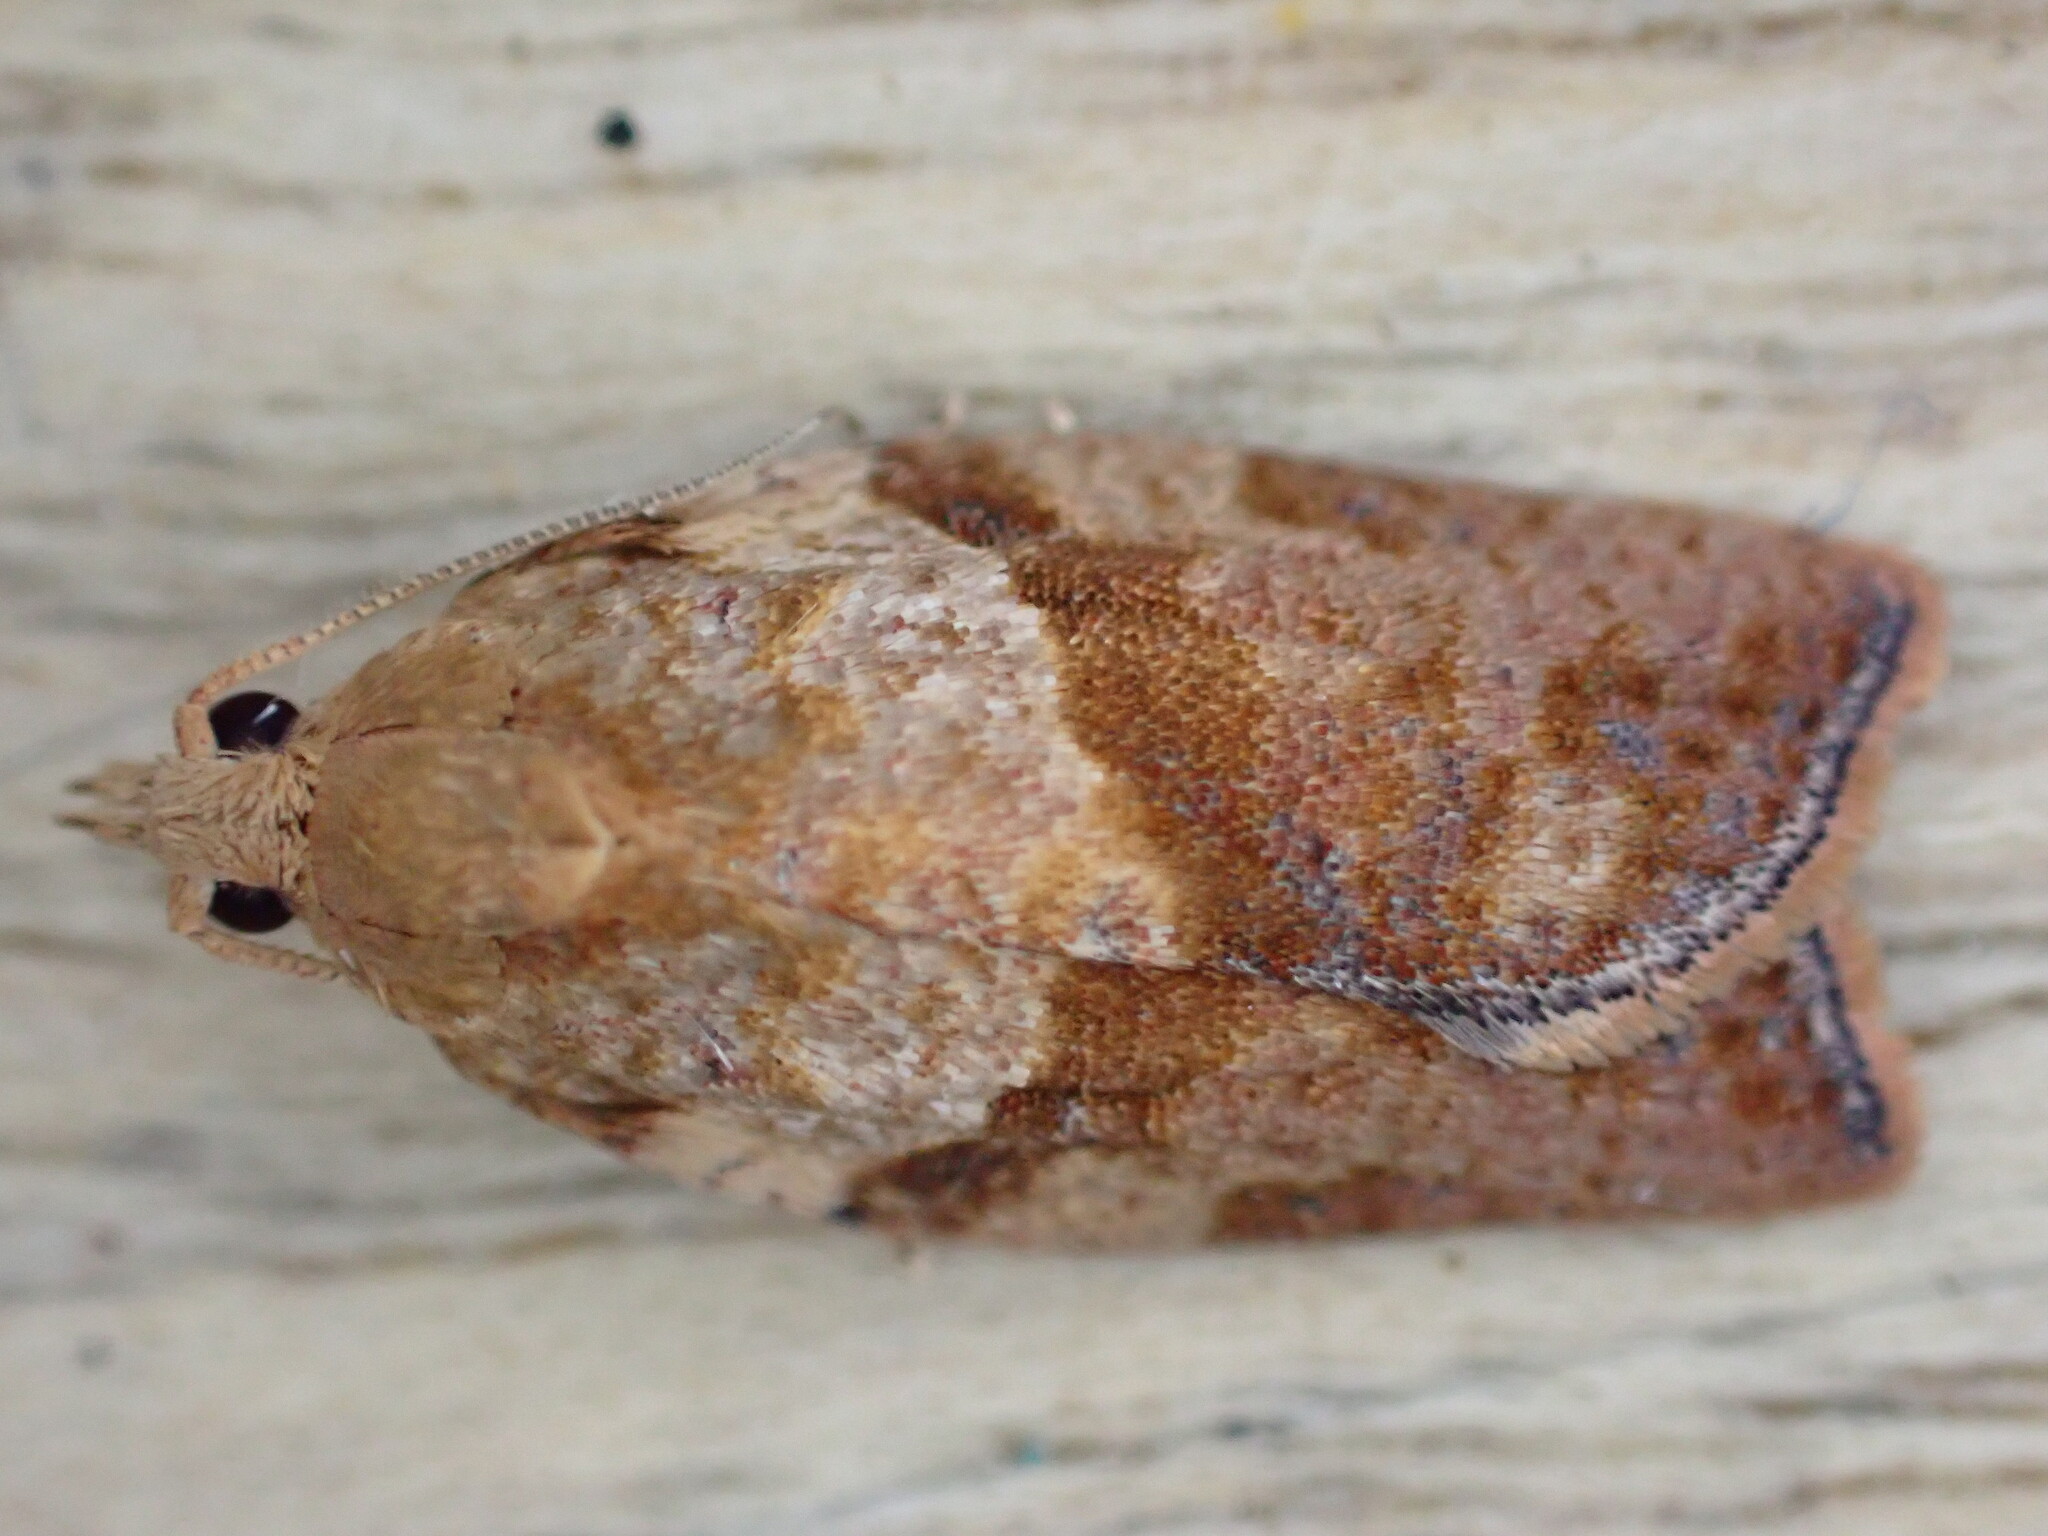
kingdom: Animalia
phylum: Arthropoda
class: Insecta
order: Lepidoptera
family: Tortricidae
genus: Epiphyas
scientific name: Epiphyas postvittana
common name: Light brown apple moth
